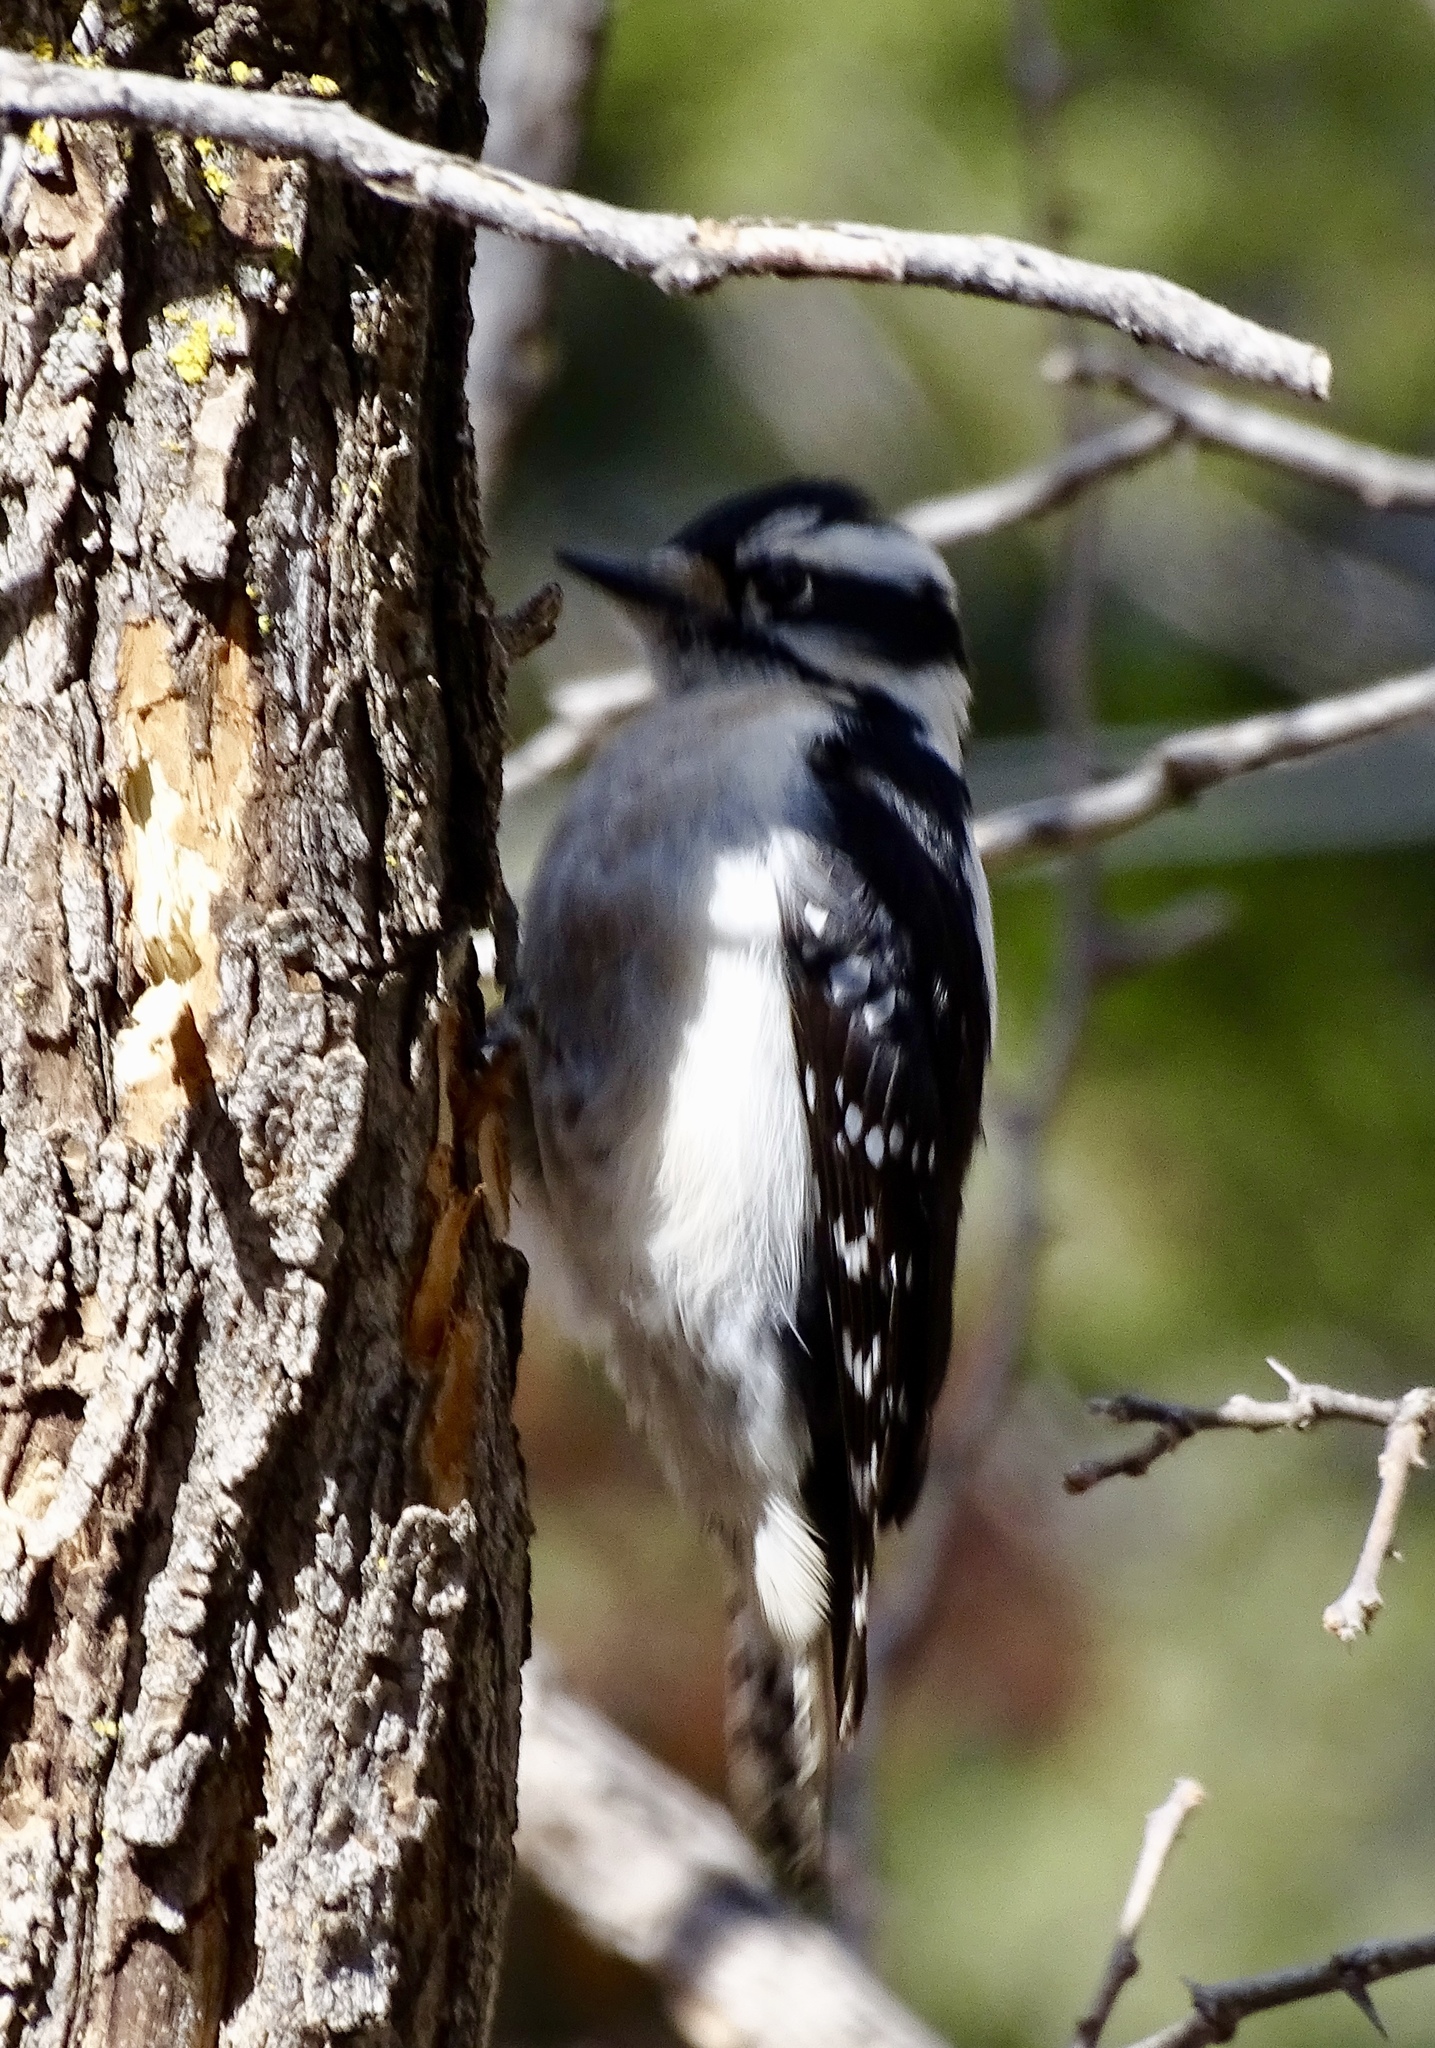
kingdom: Animalia
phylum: Chordata
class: Aves
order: Piciformes
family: Picidae
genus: Dryobates
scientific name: Dryobates pubescens
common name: Downy woodpecker
